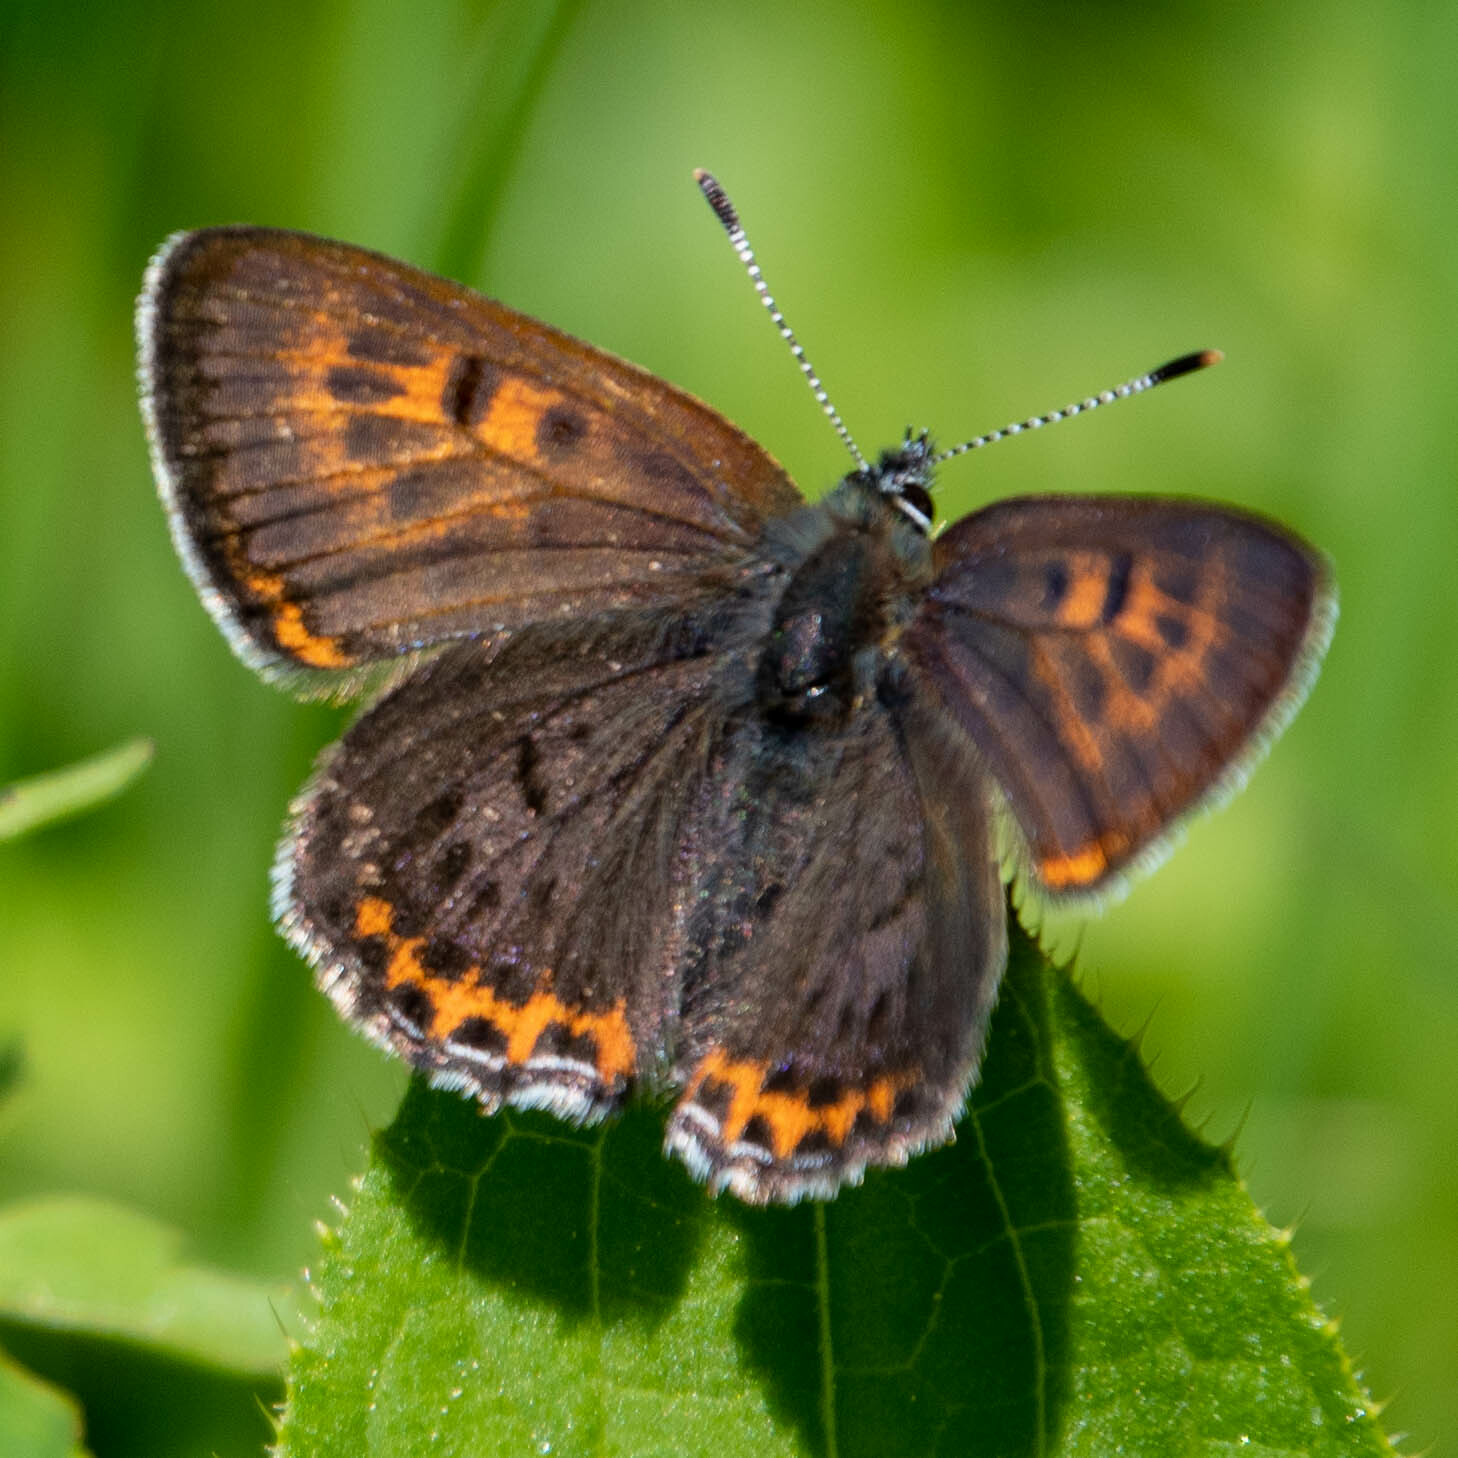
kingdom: Animalia
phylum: Arthropoda
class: Insecta
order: Lepidoptera
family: Lycaenidae
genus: Helleia
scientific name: Helleia helle
